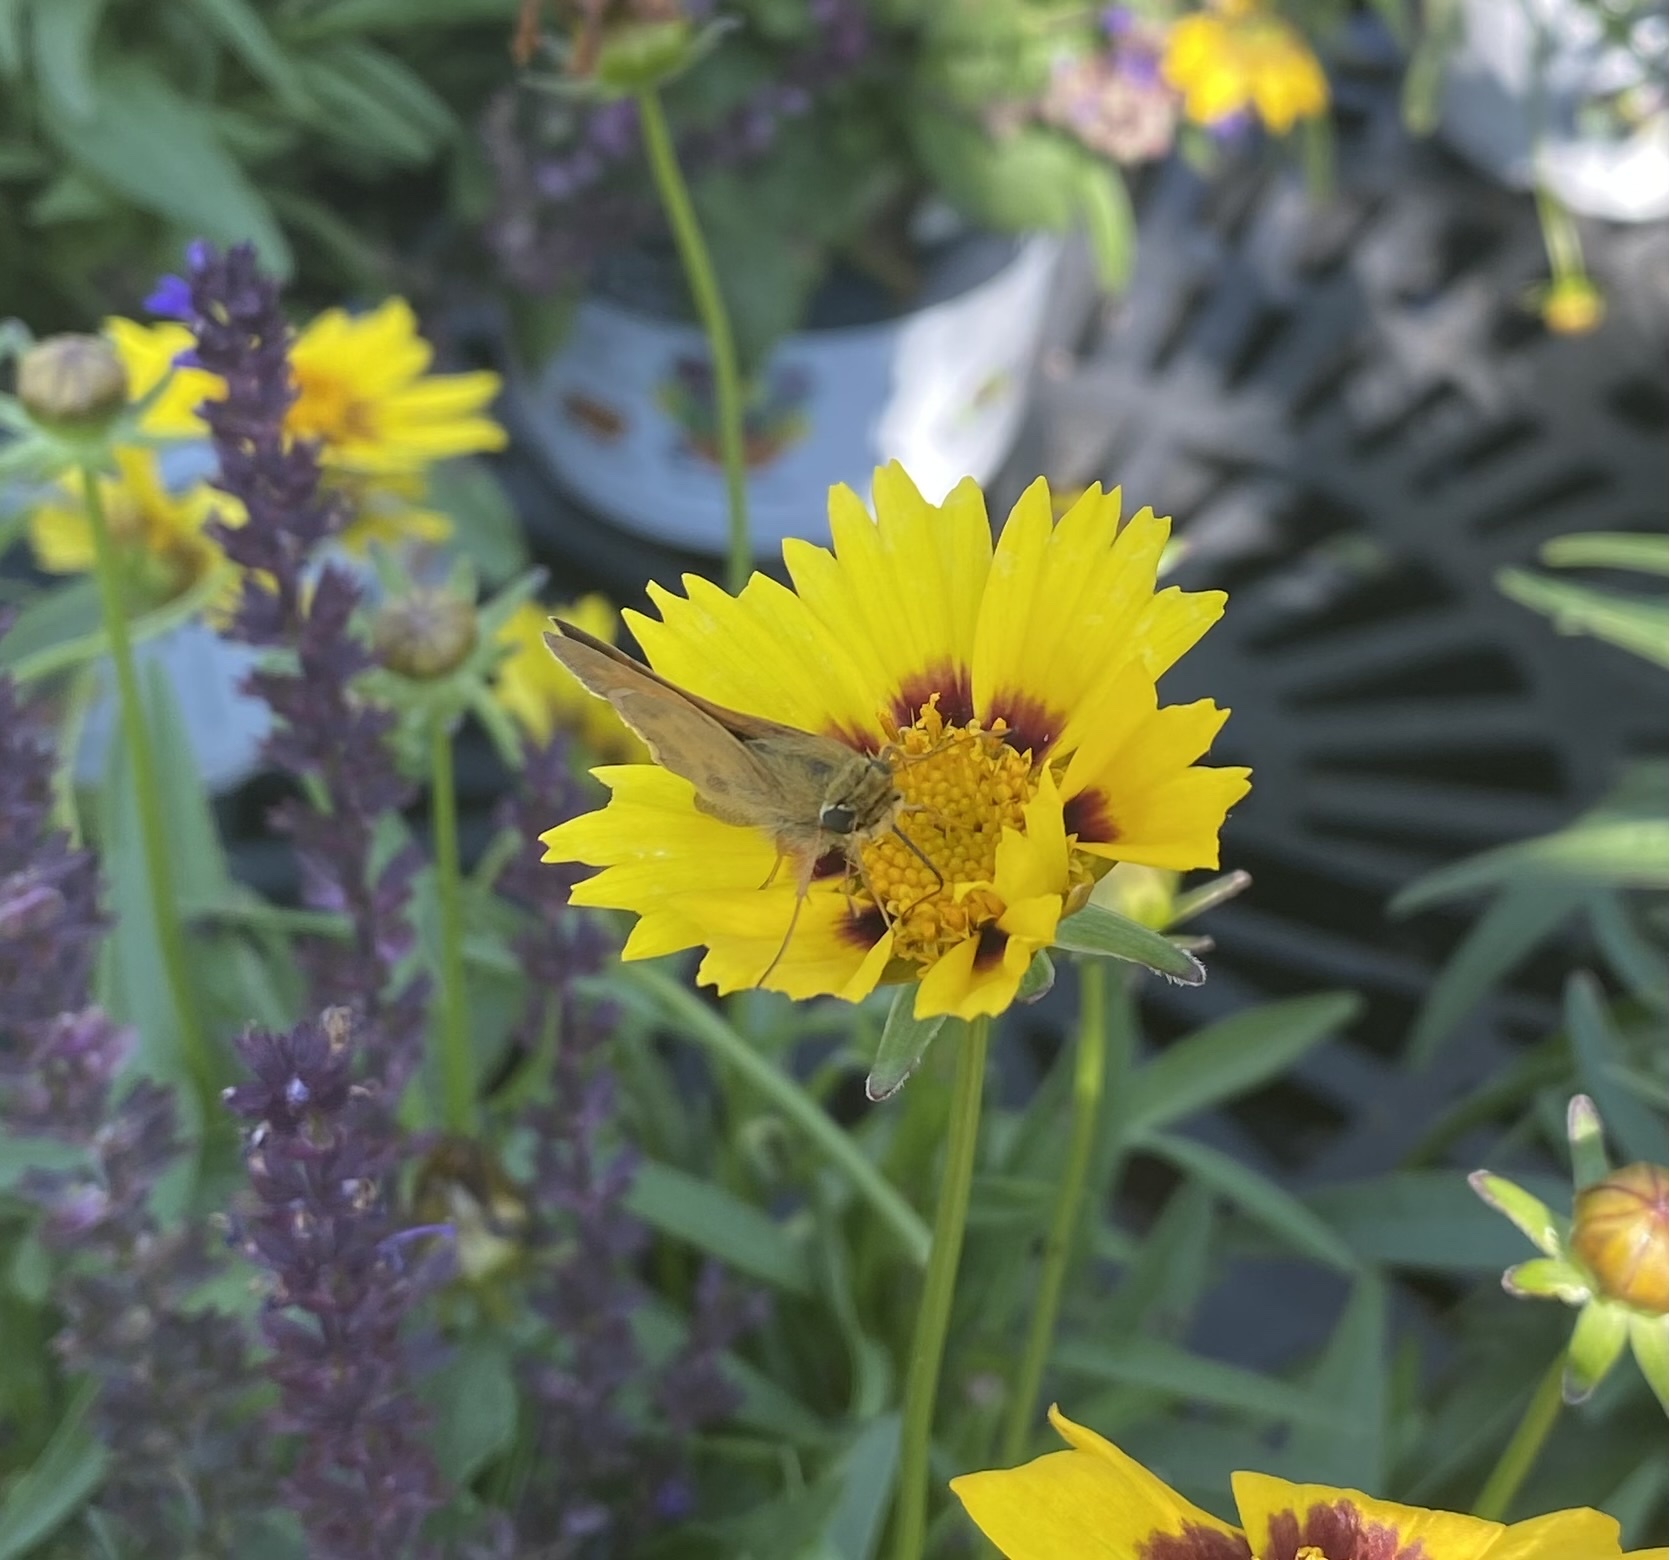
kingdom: Animalia
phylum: Arthropoda
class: Insecta
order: Lepidoptera
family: Hesperiidae
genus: Atalopedes
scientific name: Atalopedes
